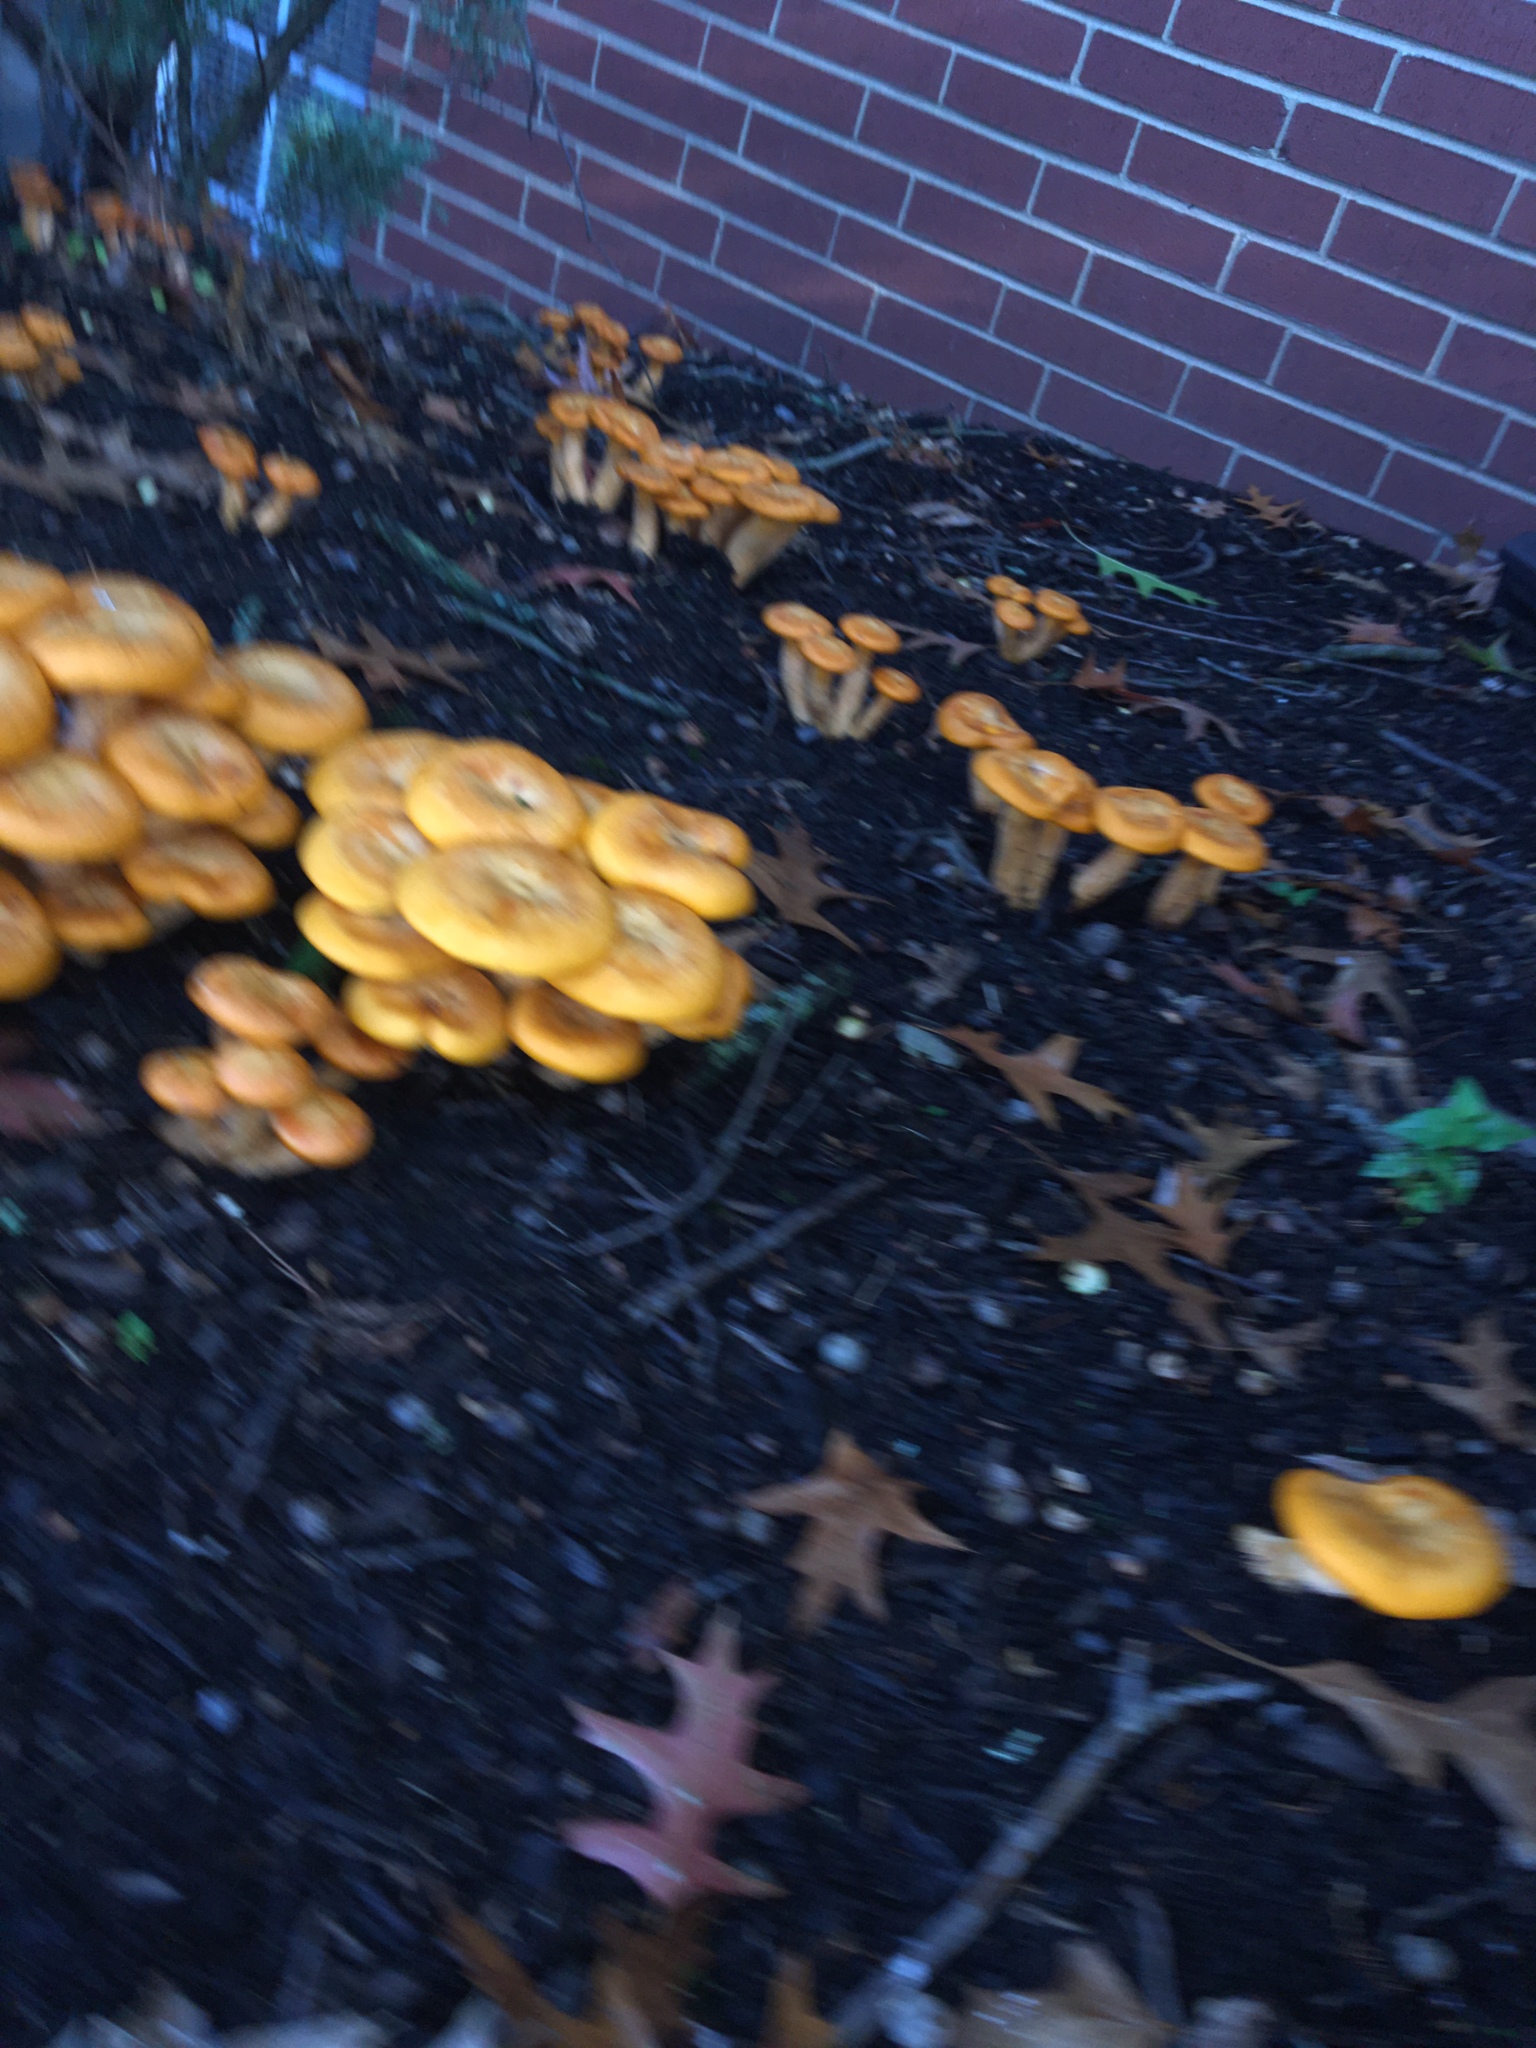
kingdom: Fungi
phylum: Basidiomycota
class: Agaricomycetes
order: Agaricales
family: Omphalotaceae
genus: Omphalotus
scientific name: Omphalotus illudens
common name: Jack o lantern
